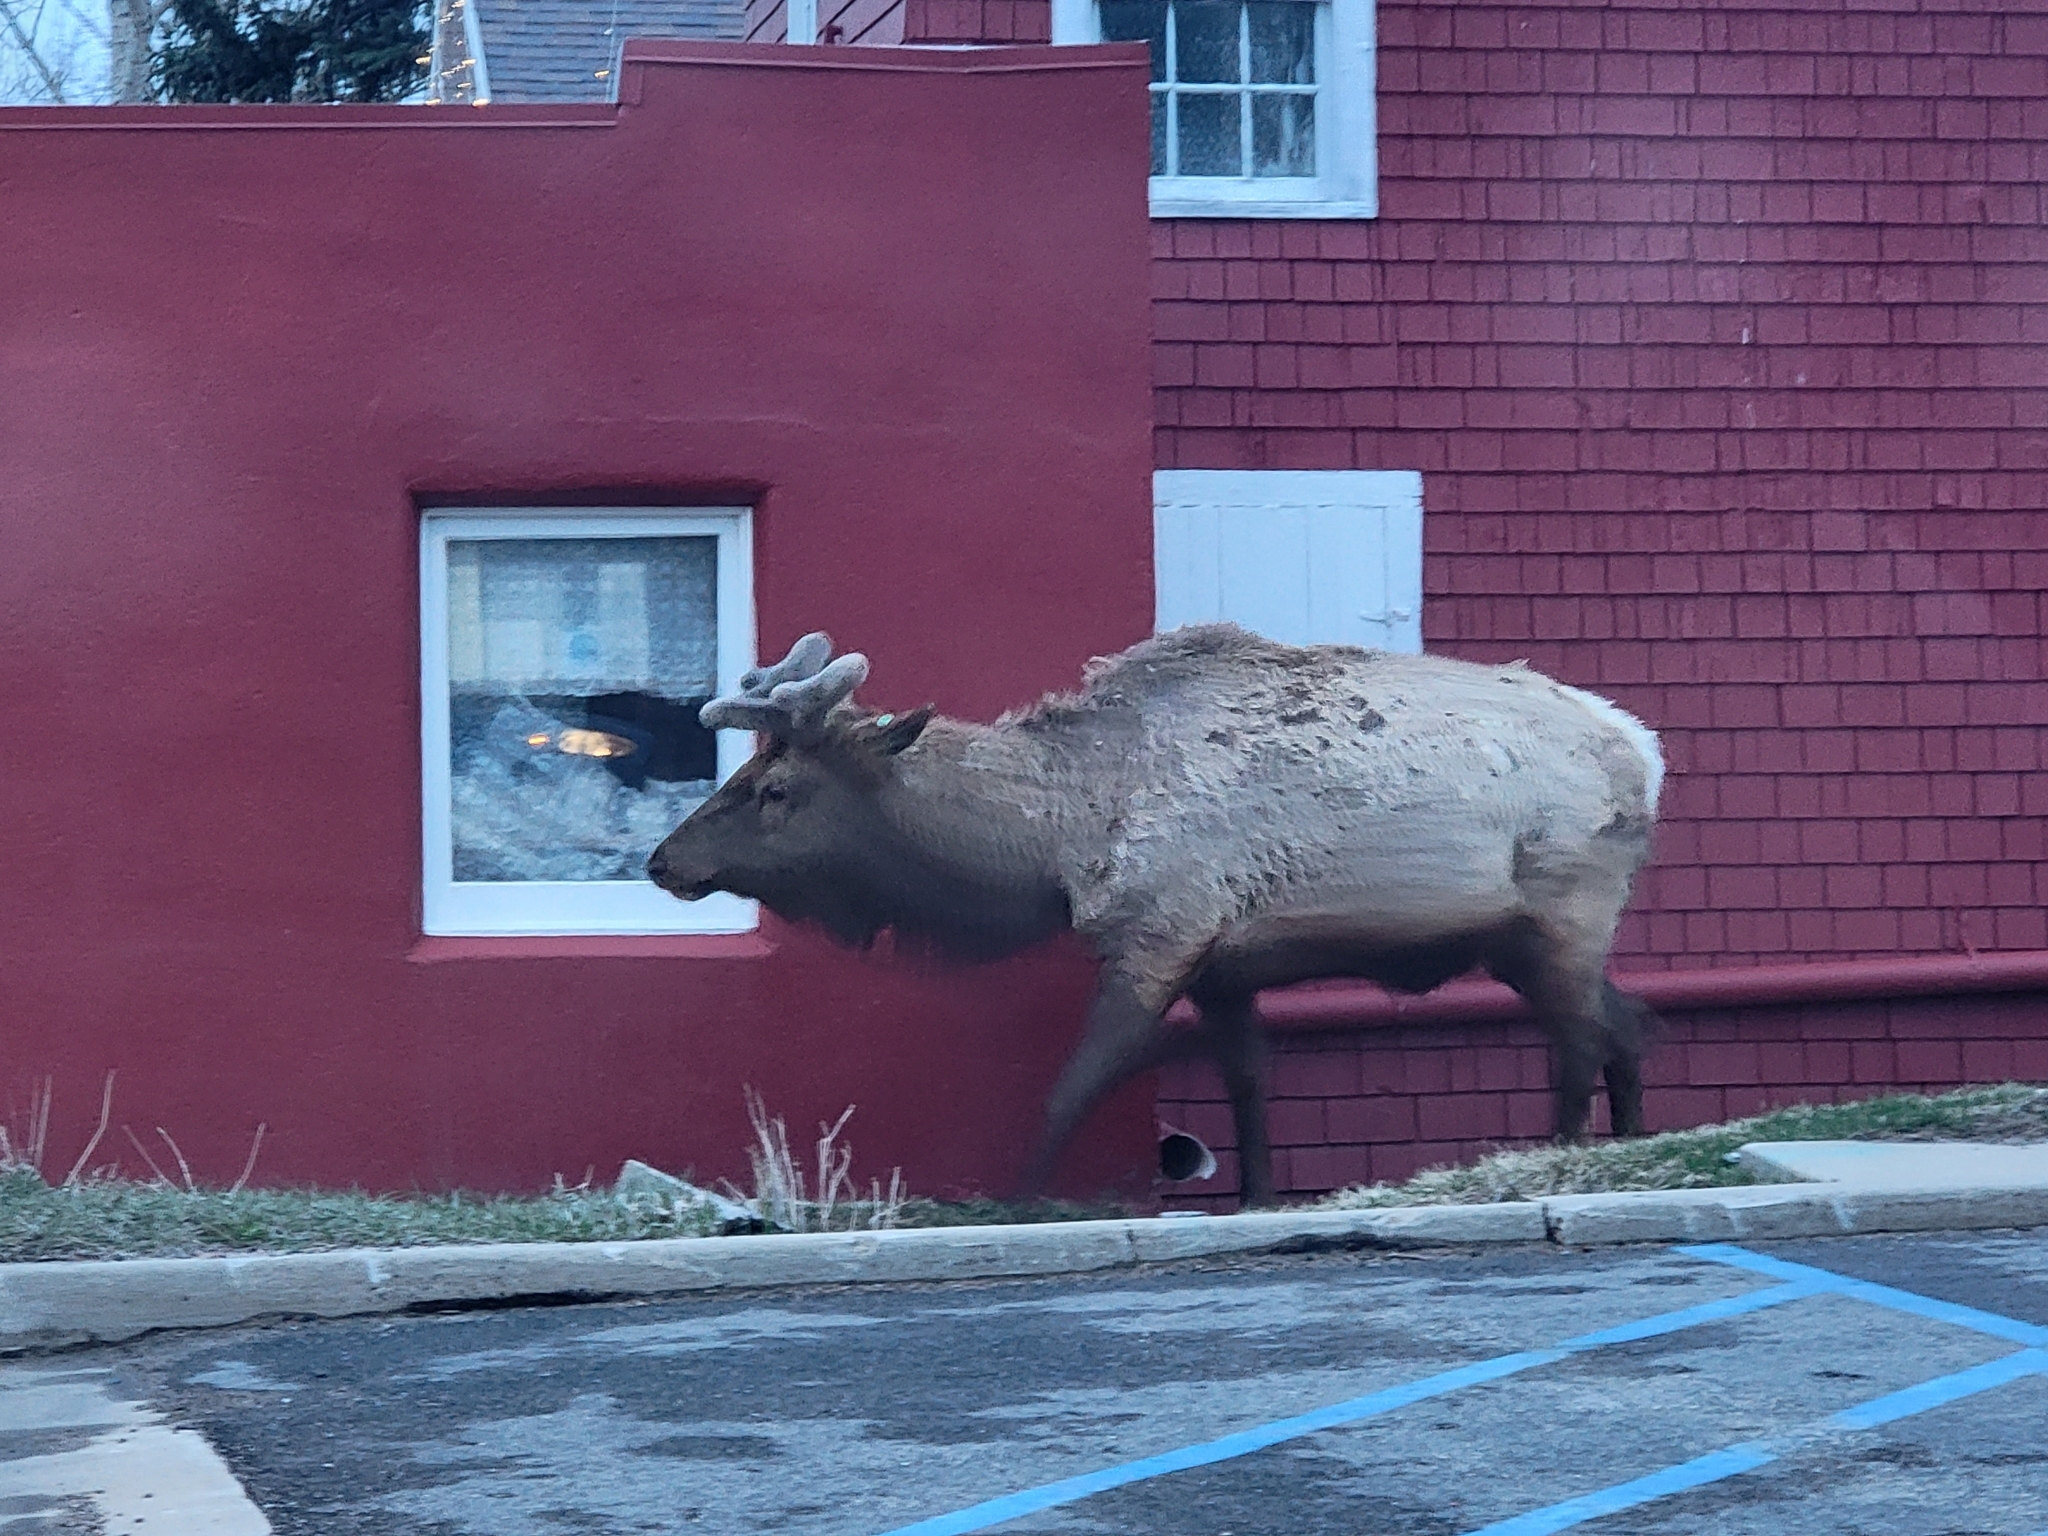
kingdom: Animalia
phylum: Chordata
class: Mammalia
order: Artiodactyla
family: Cervidae
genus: Cervus
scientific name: Cervus elaphus
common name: Red deer
